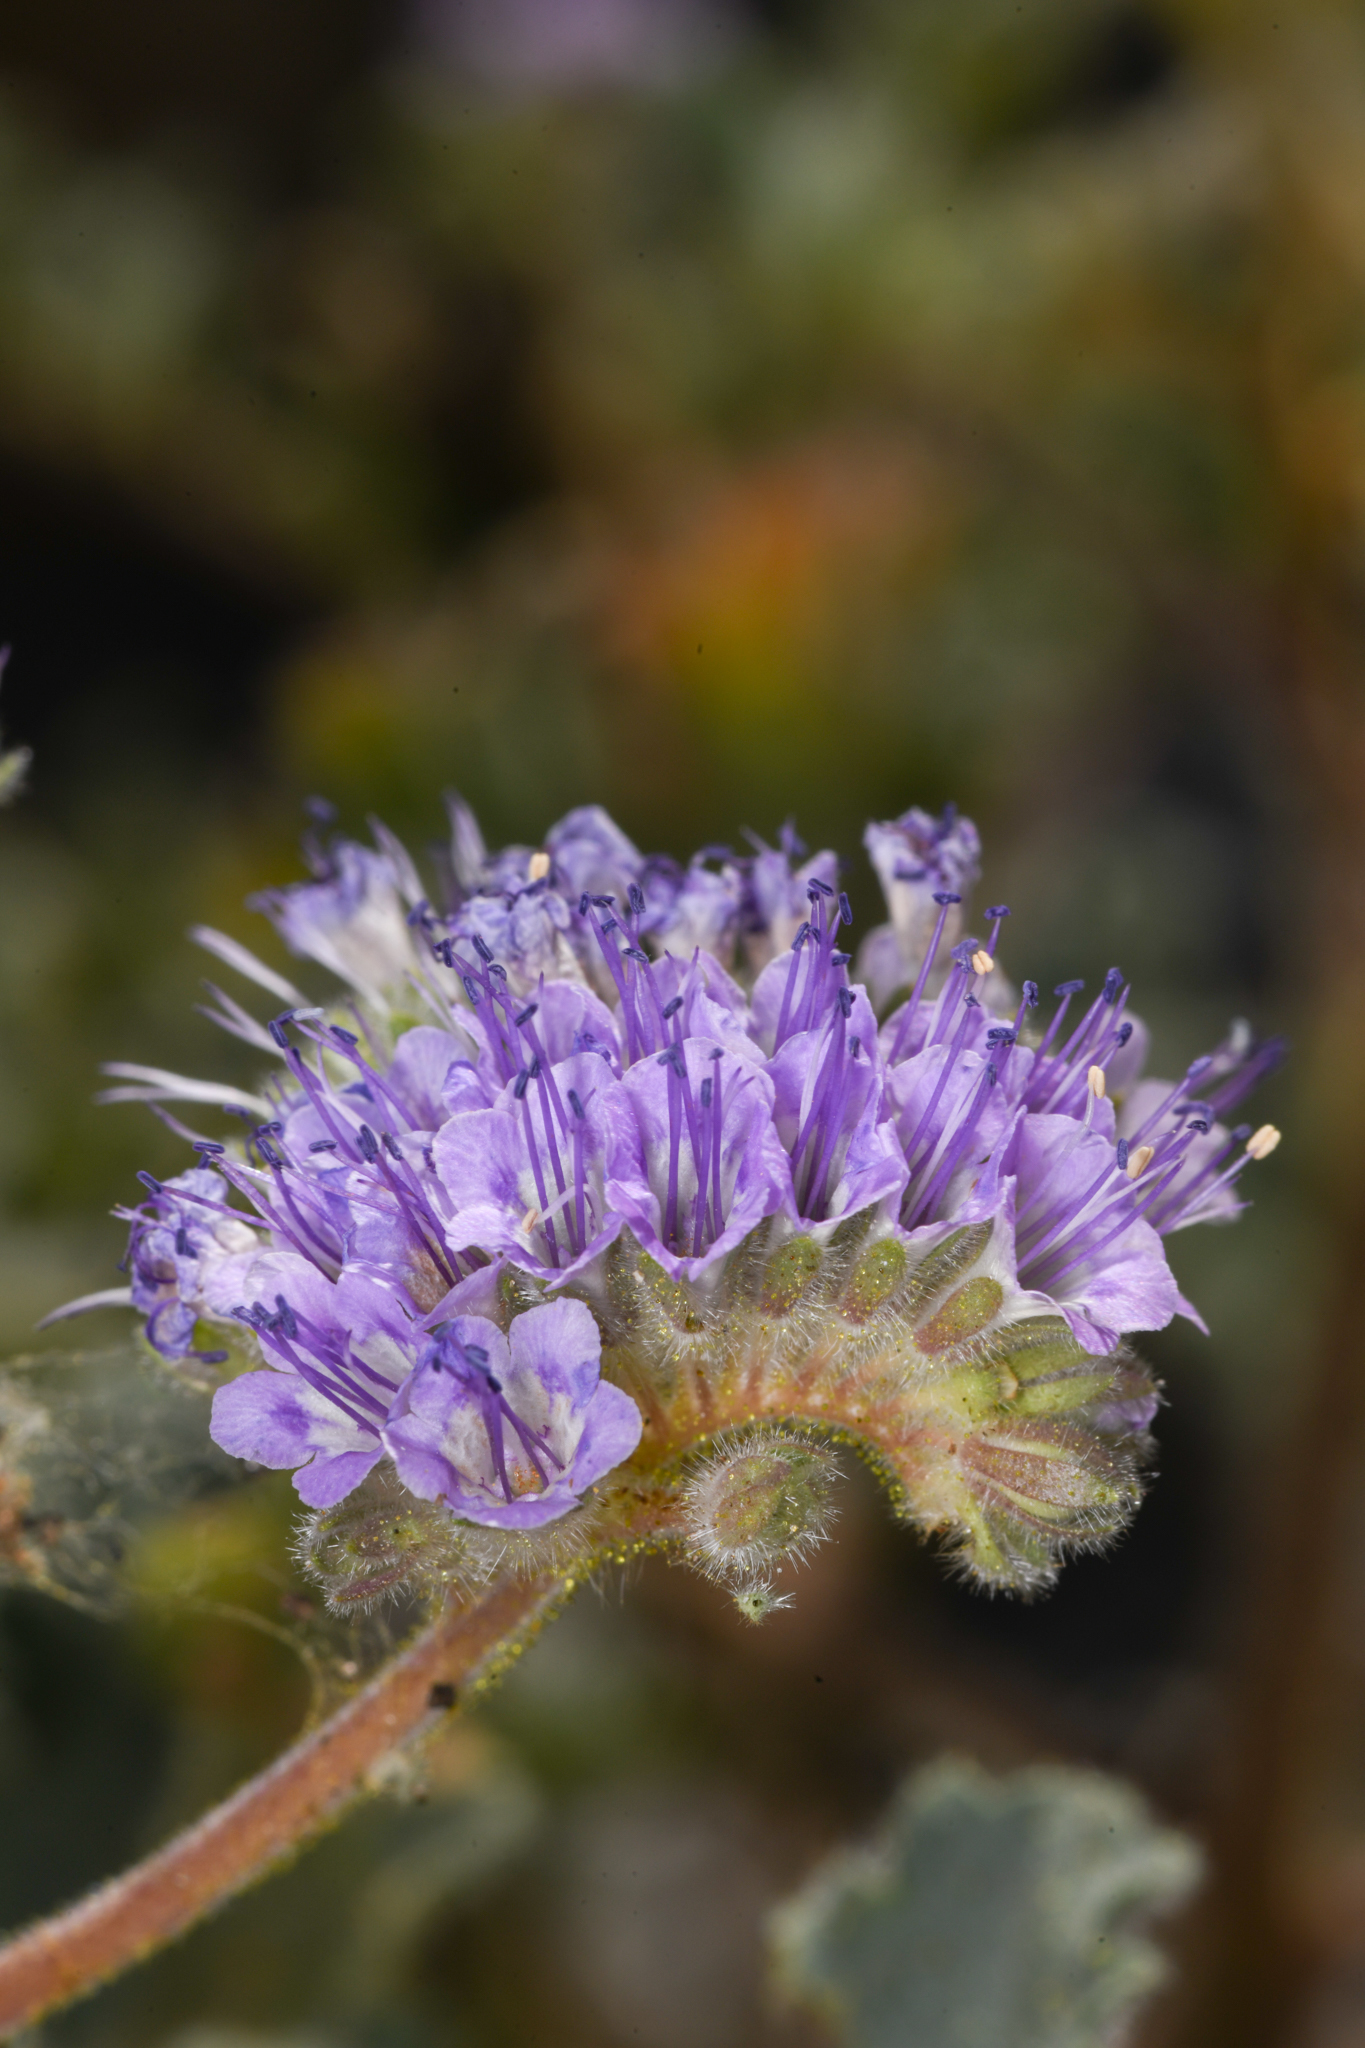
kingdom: Plantae
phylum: Tracheophyta
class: Magnoliopsida
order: Boraginales
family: Hydrophyllaceae
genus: Phacelia
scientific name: Phacelia pedicellata
